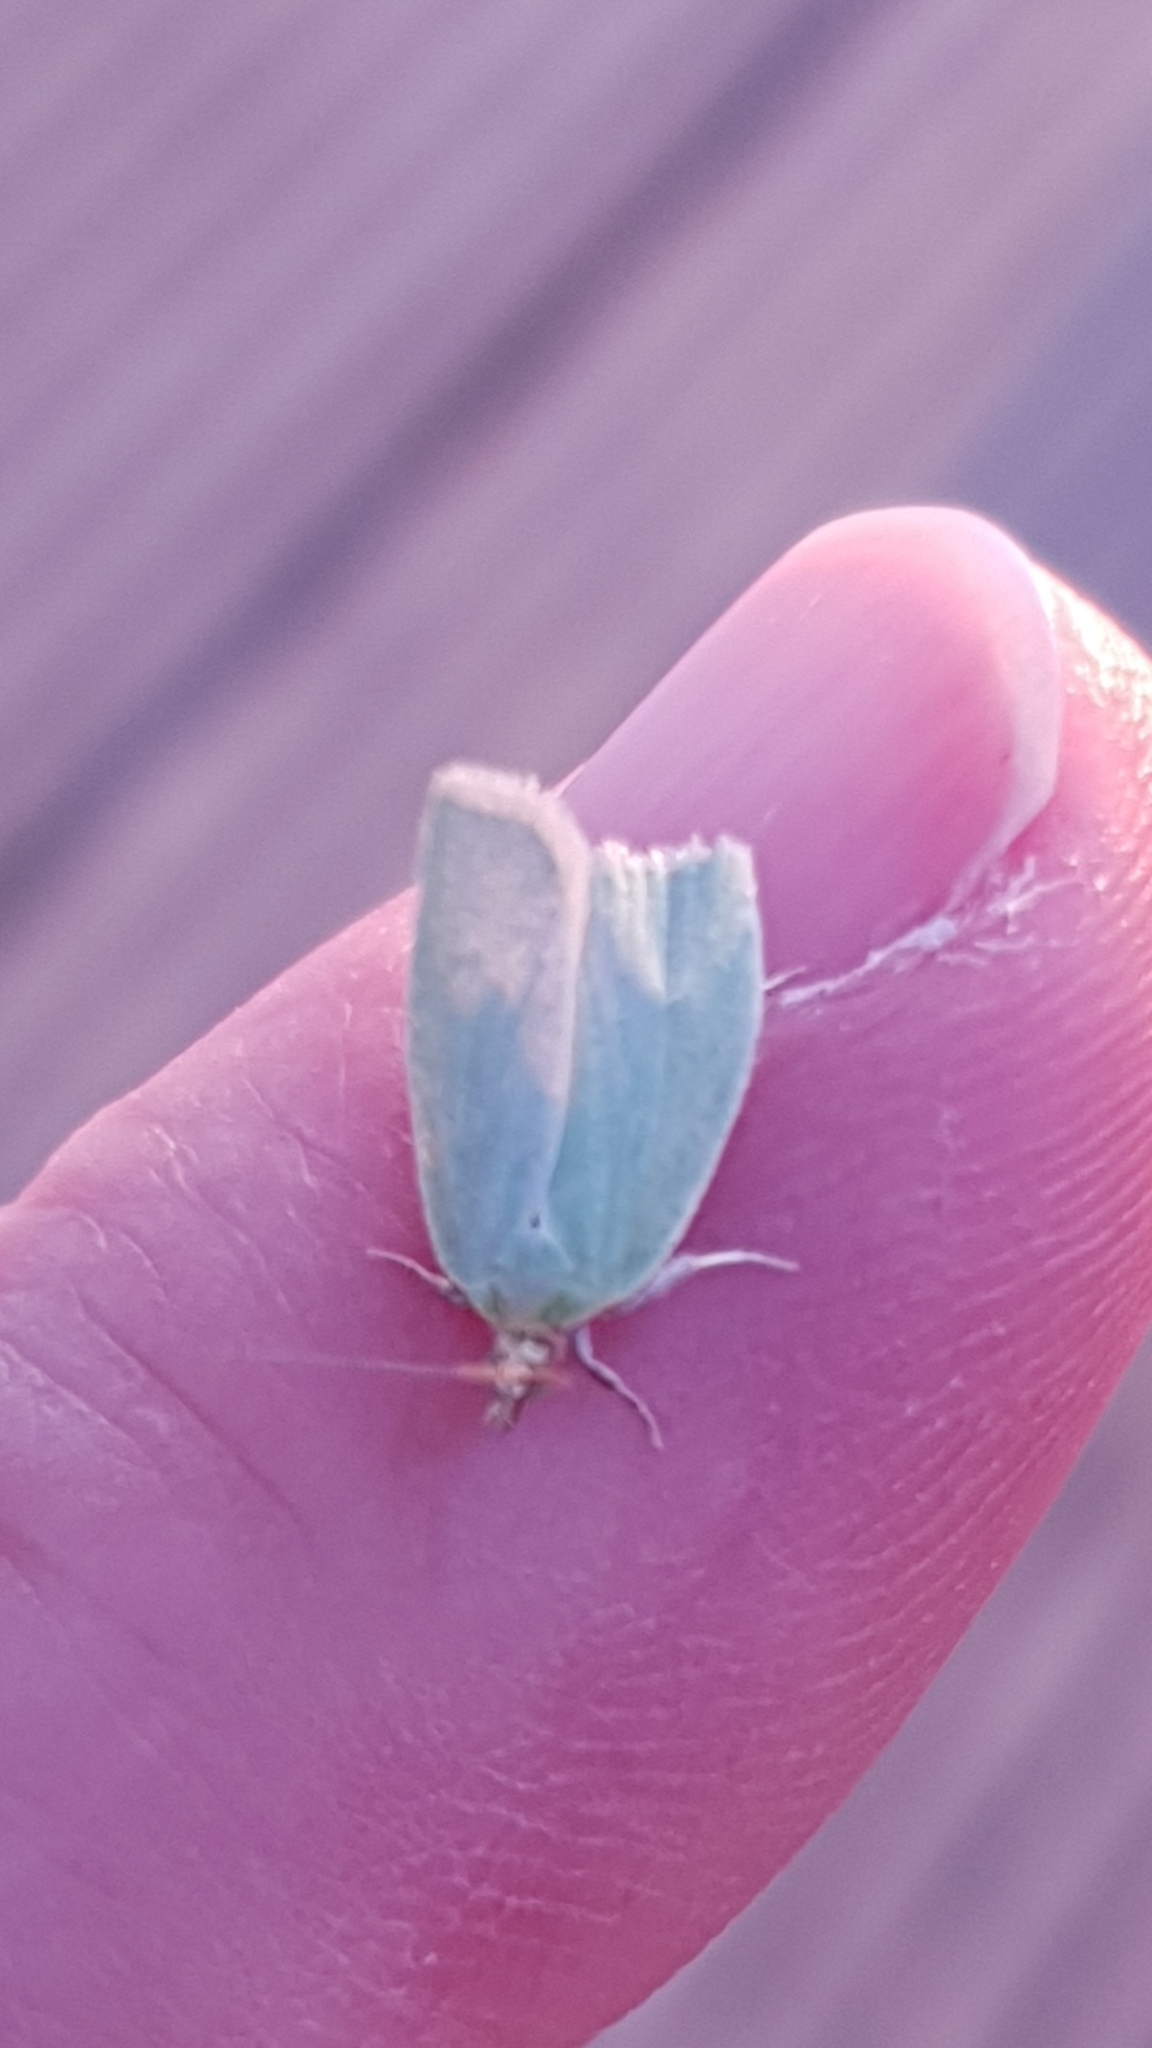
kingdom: Animalia
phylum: Arthropoda
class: Insecta
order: Lepidoptera
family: Tortricidae
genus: Tortrix
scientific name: Tortrix viridana
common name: Green oak tortrix
